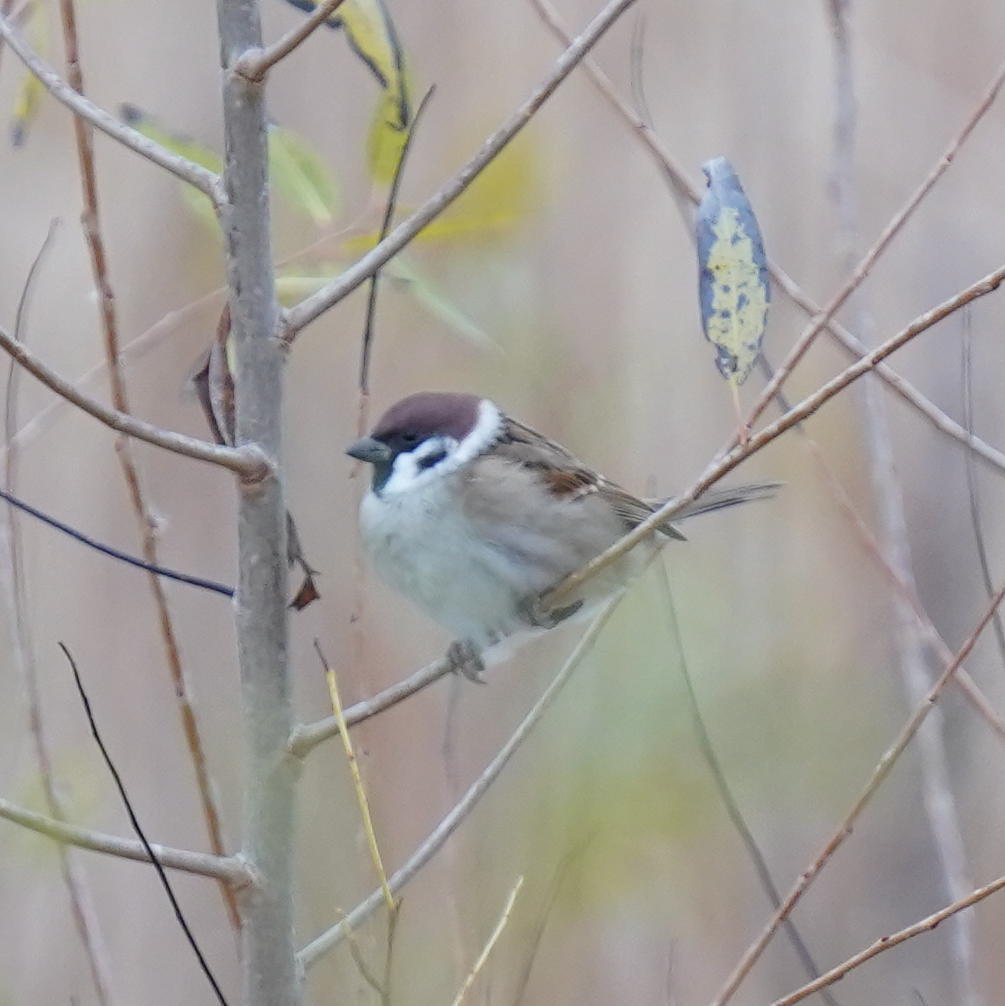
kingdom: Animalia
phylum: Chordata
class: Aves
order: Passeriformes
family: Passeridae
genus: Passer
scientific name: Passer montanus
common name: Eurasian tree sparrow
